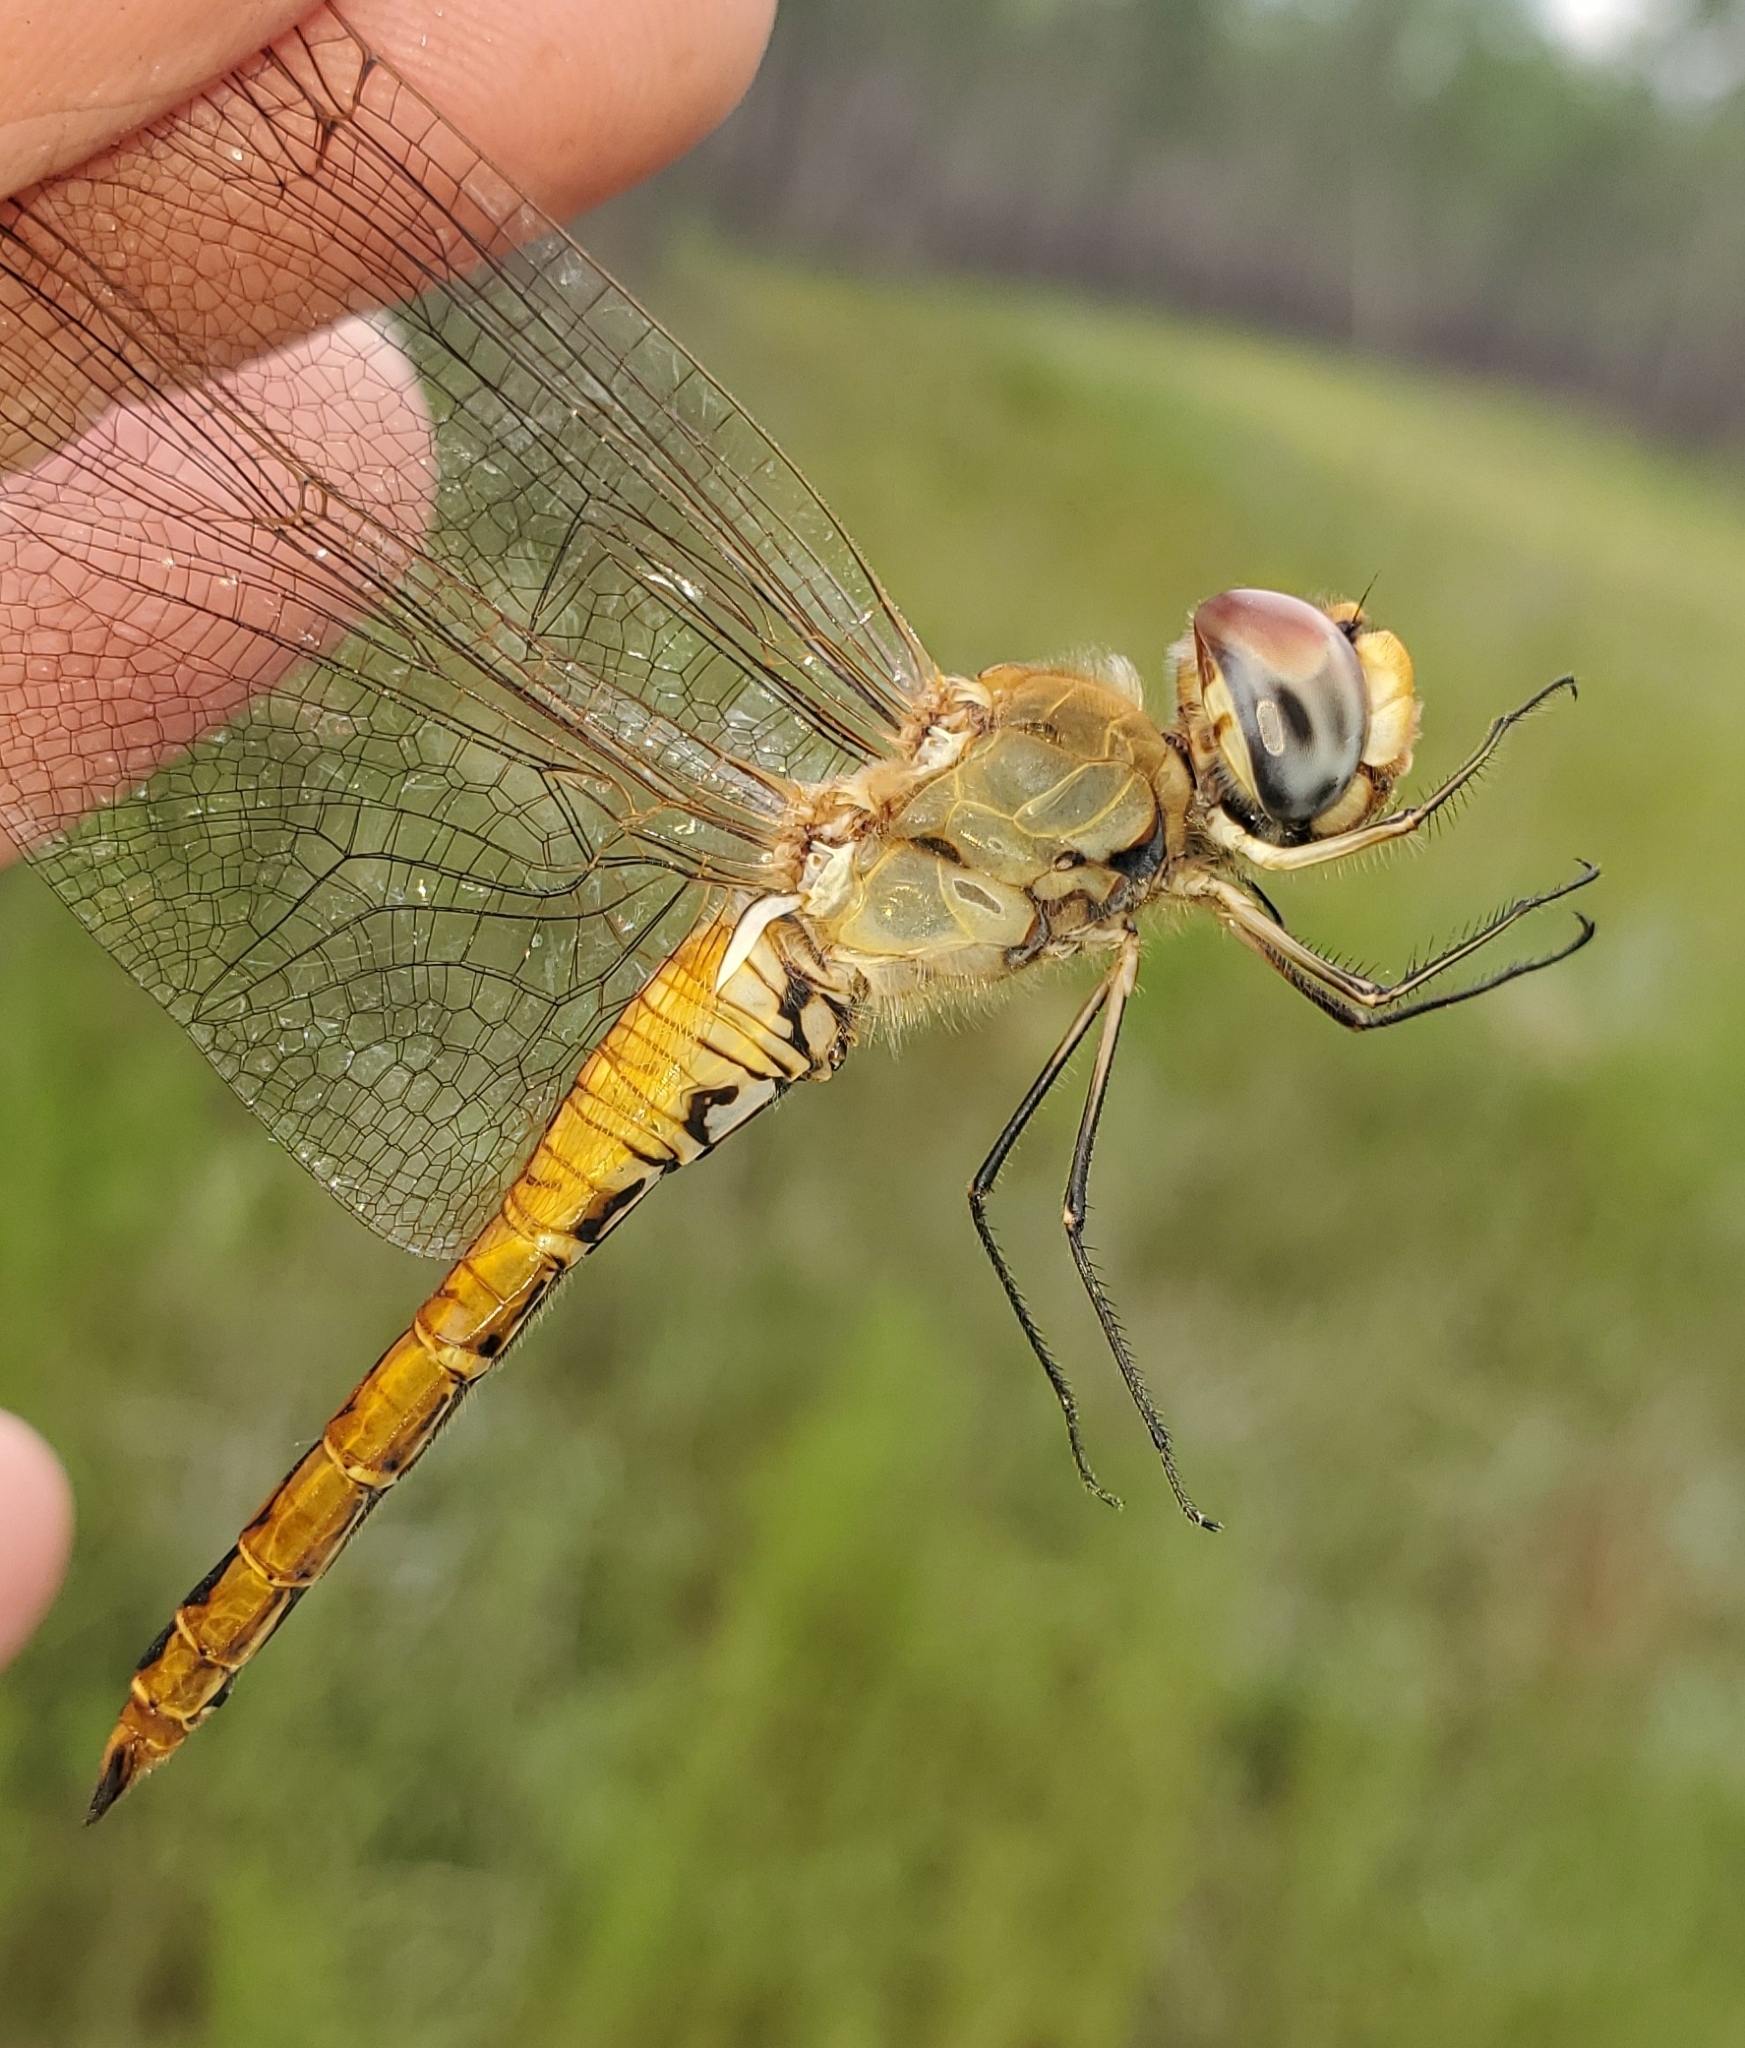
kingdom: Animalia
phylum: Arthropoda
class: Insecta
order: Odonata
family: Libellulidae
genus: Pantala
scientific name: Pantala flavescens
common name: Wandering glider
